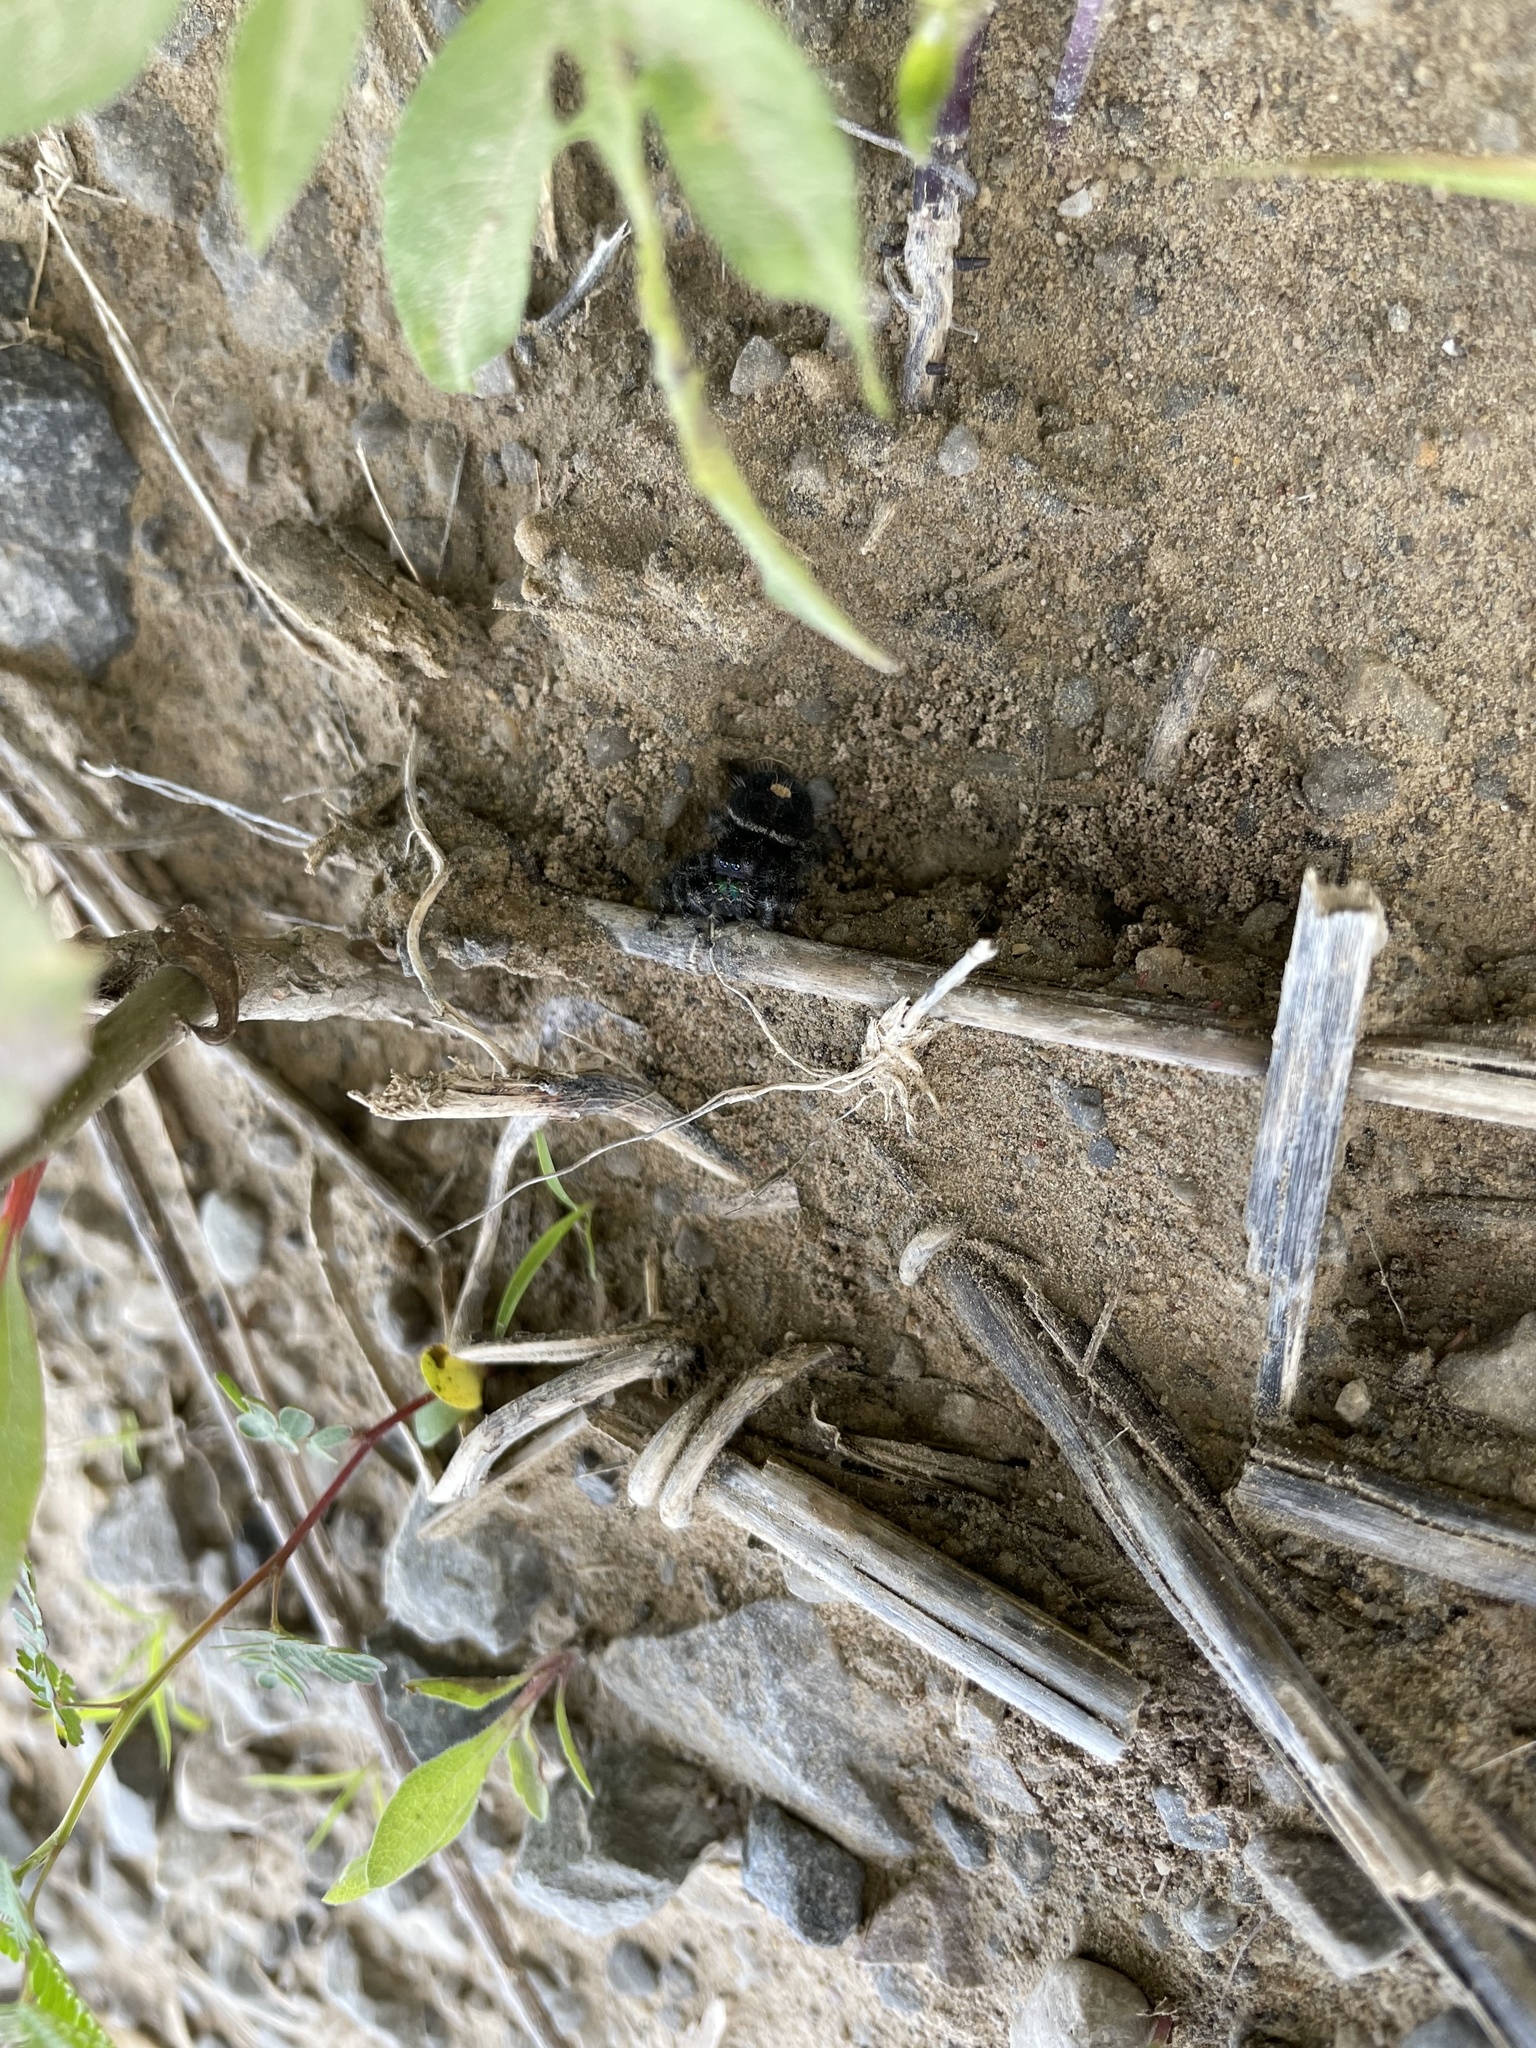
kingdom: Animalia
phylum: Arthropoda
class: Arachnida
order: Araneae
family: Salticidae
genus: Phidippus
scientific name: Phidippus audax
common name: Bold jumper
